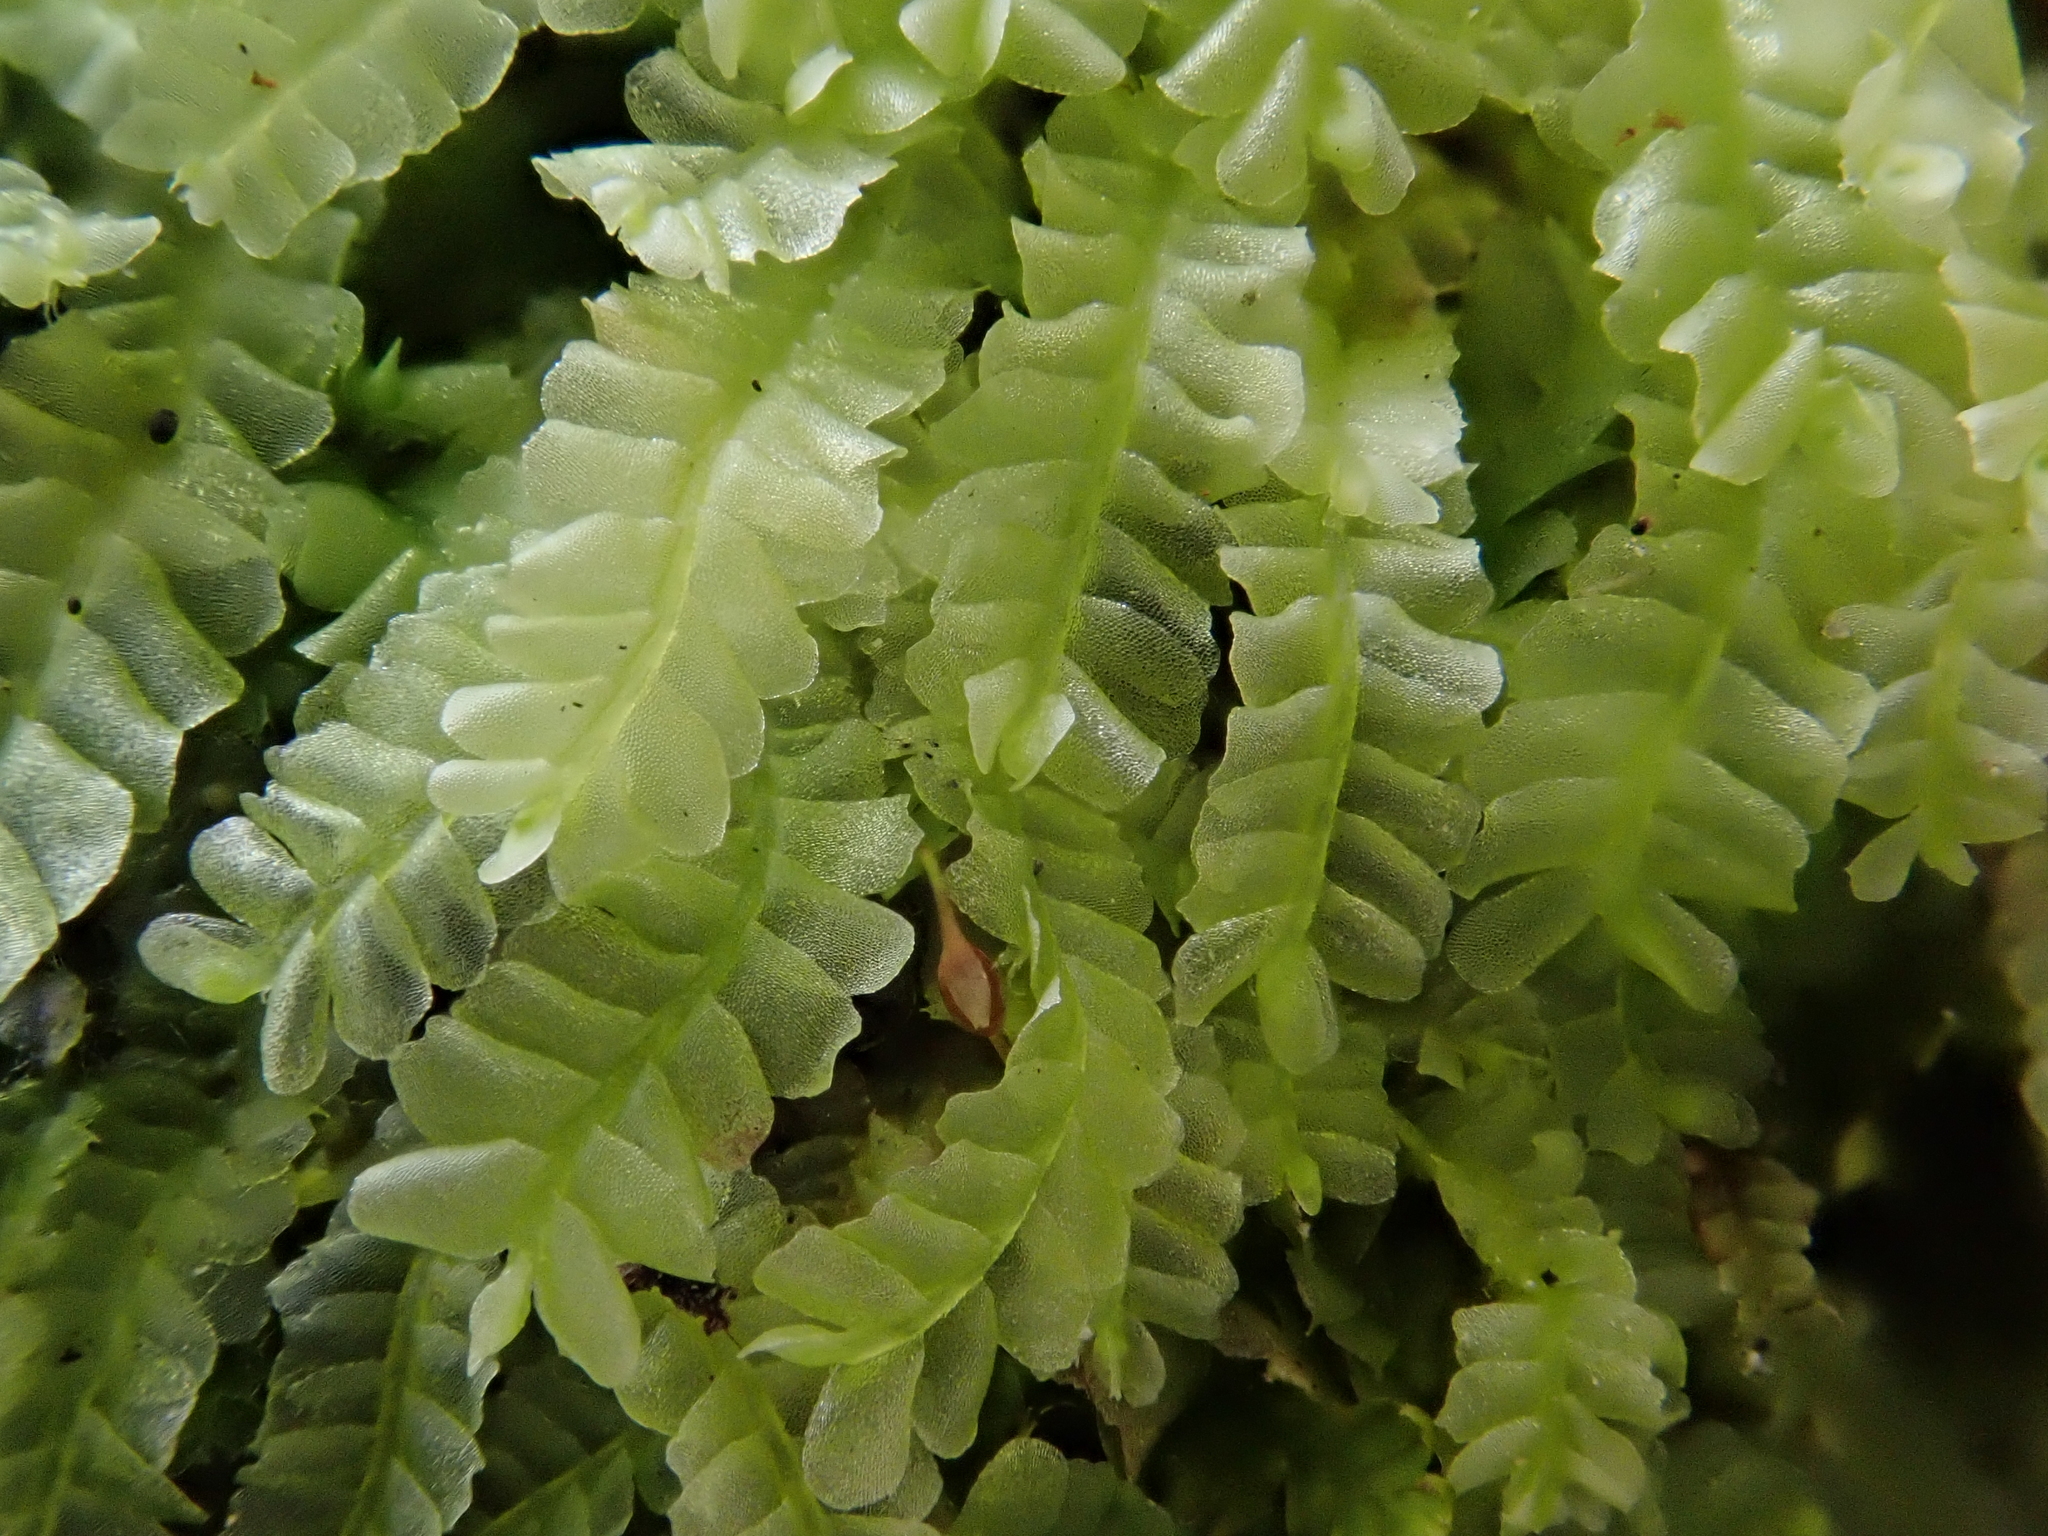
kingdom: Plantae
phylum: Marchantiophyta
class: Jungermanniopsida
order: Jungermanniales
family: Lophocoleaceae
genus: Chiloscyphus
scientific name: Chiloscyphus pallescens
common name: St winifrid's other moss
